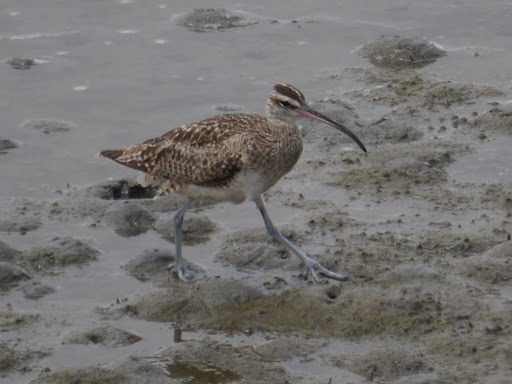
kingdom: Animalia
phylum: Chordata
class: Aves
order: Charadriiformes
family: Scolopacidae
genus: Numenius
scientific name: Numenius phaeopus
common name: Whimbrel
